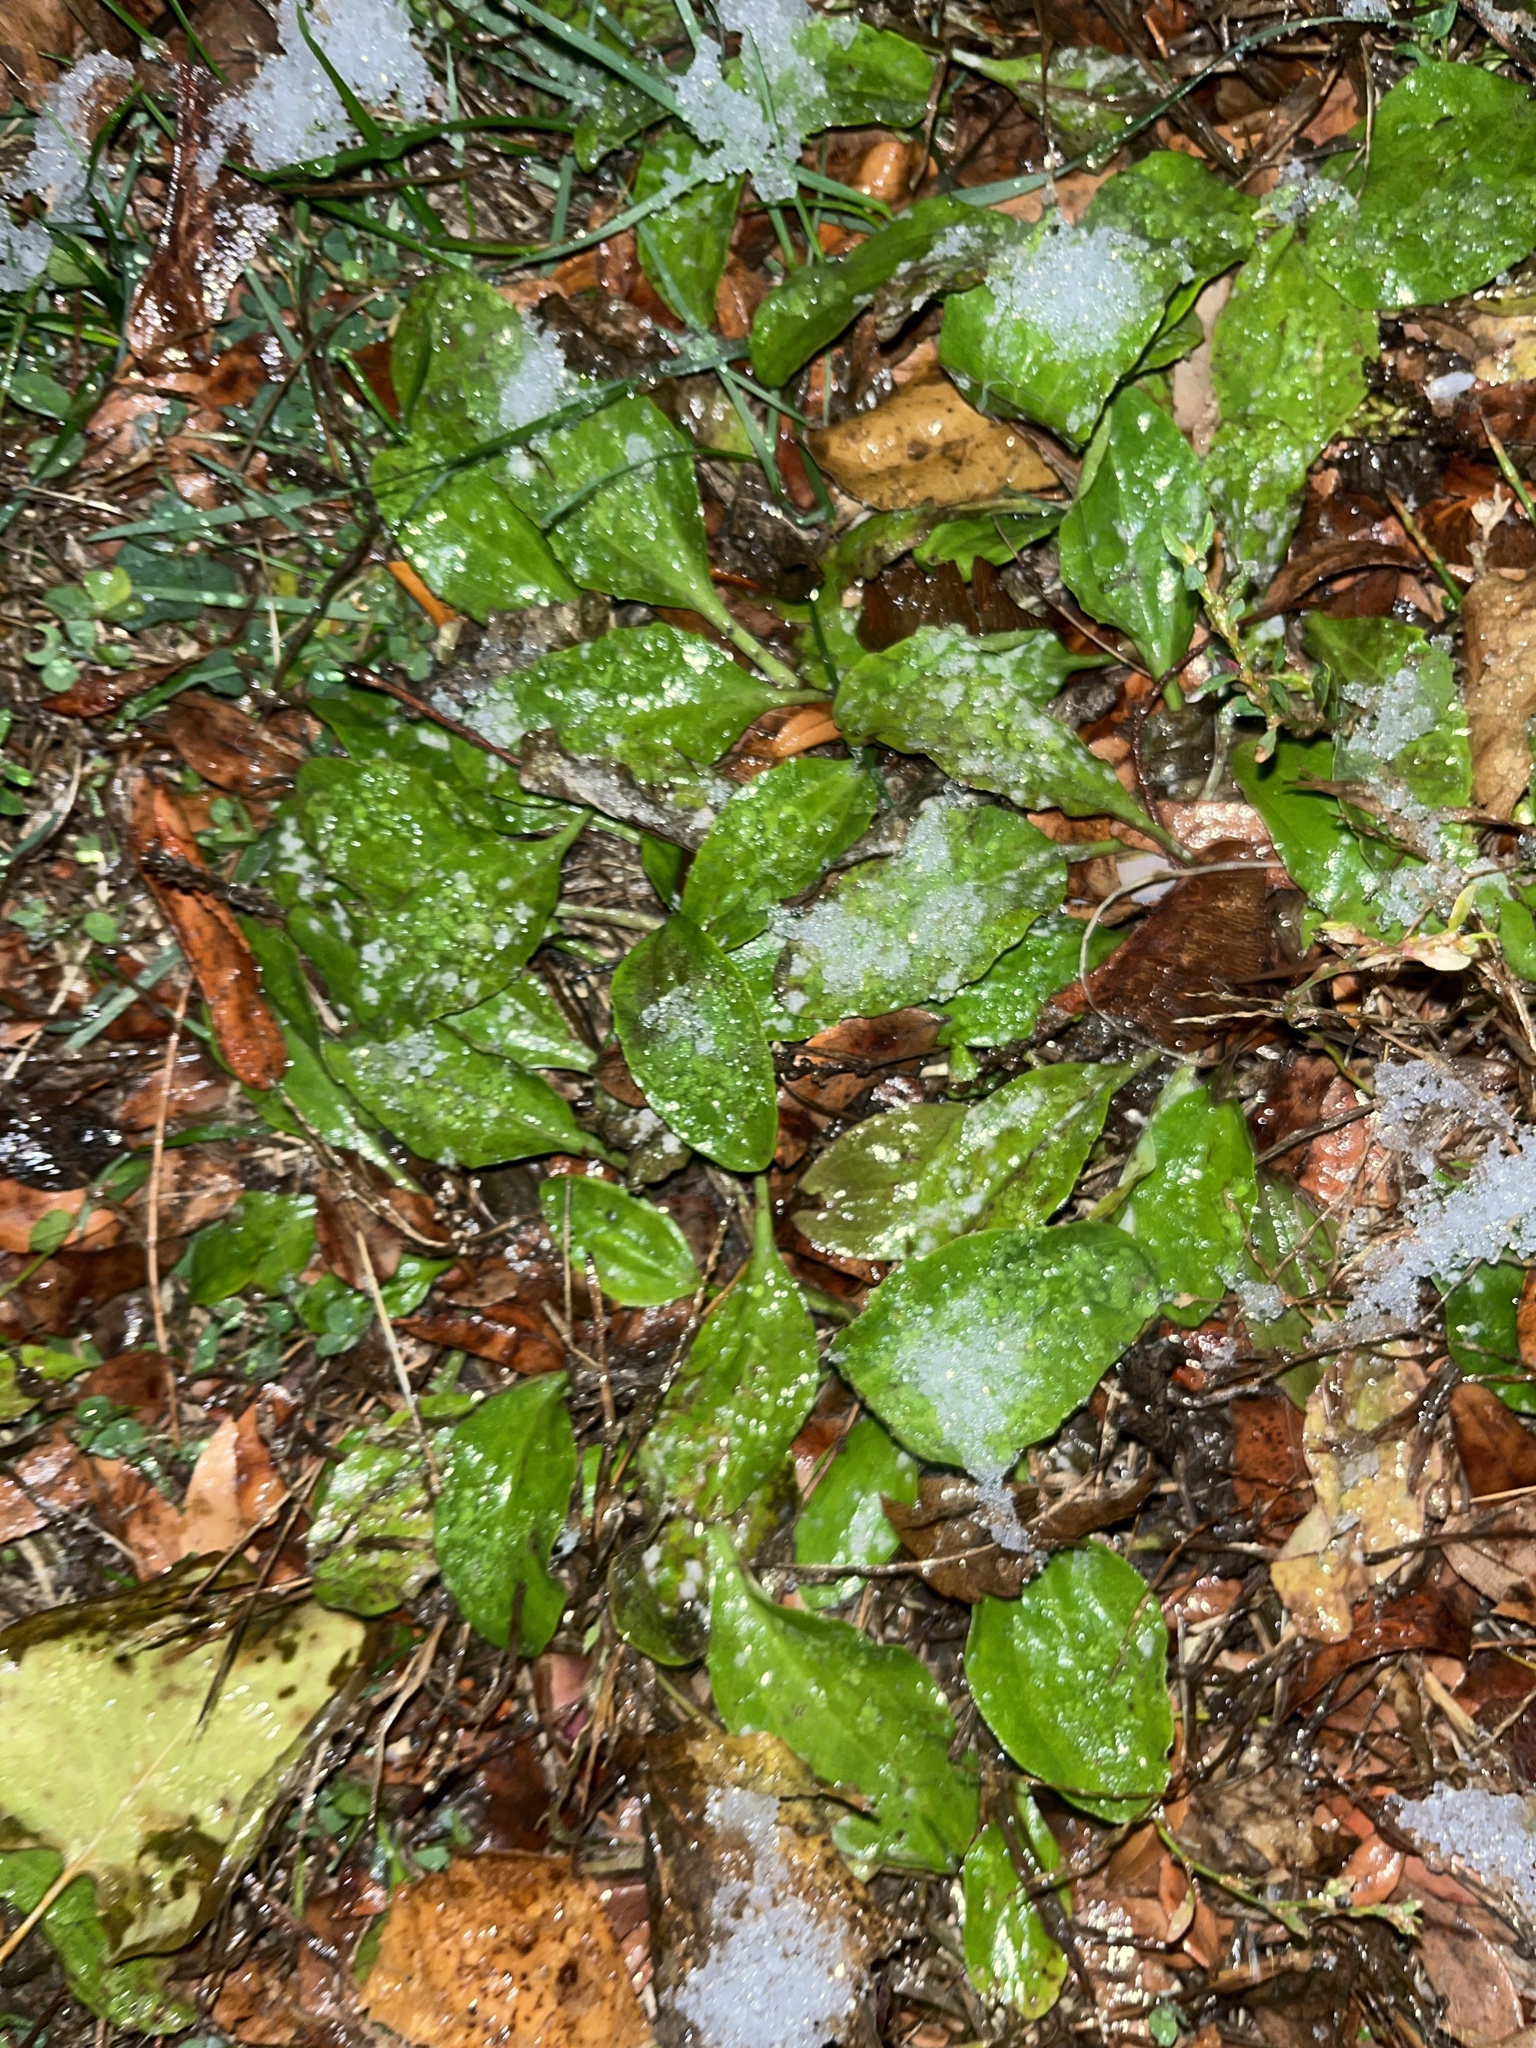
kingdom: Plantae
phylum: Tracheophyta
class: Magnoliopsida
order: Lamiales
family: Plantaginaceae
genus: Plantago
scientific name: Plantago major
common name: Common plantain
